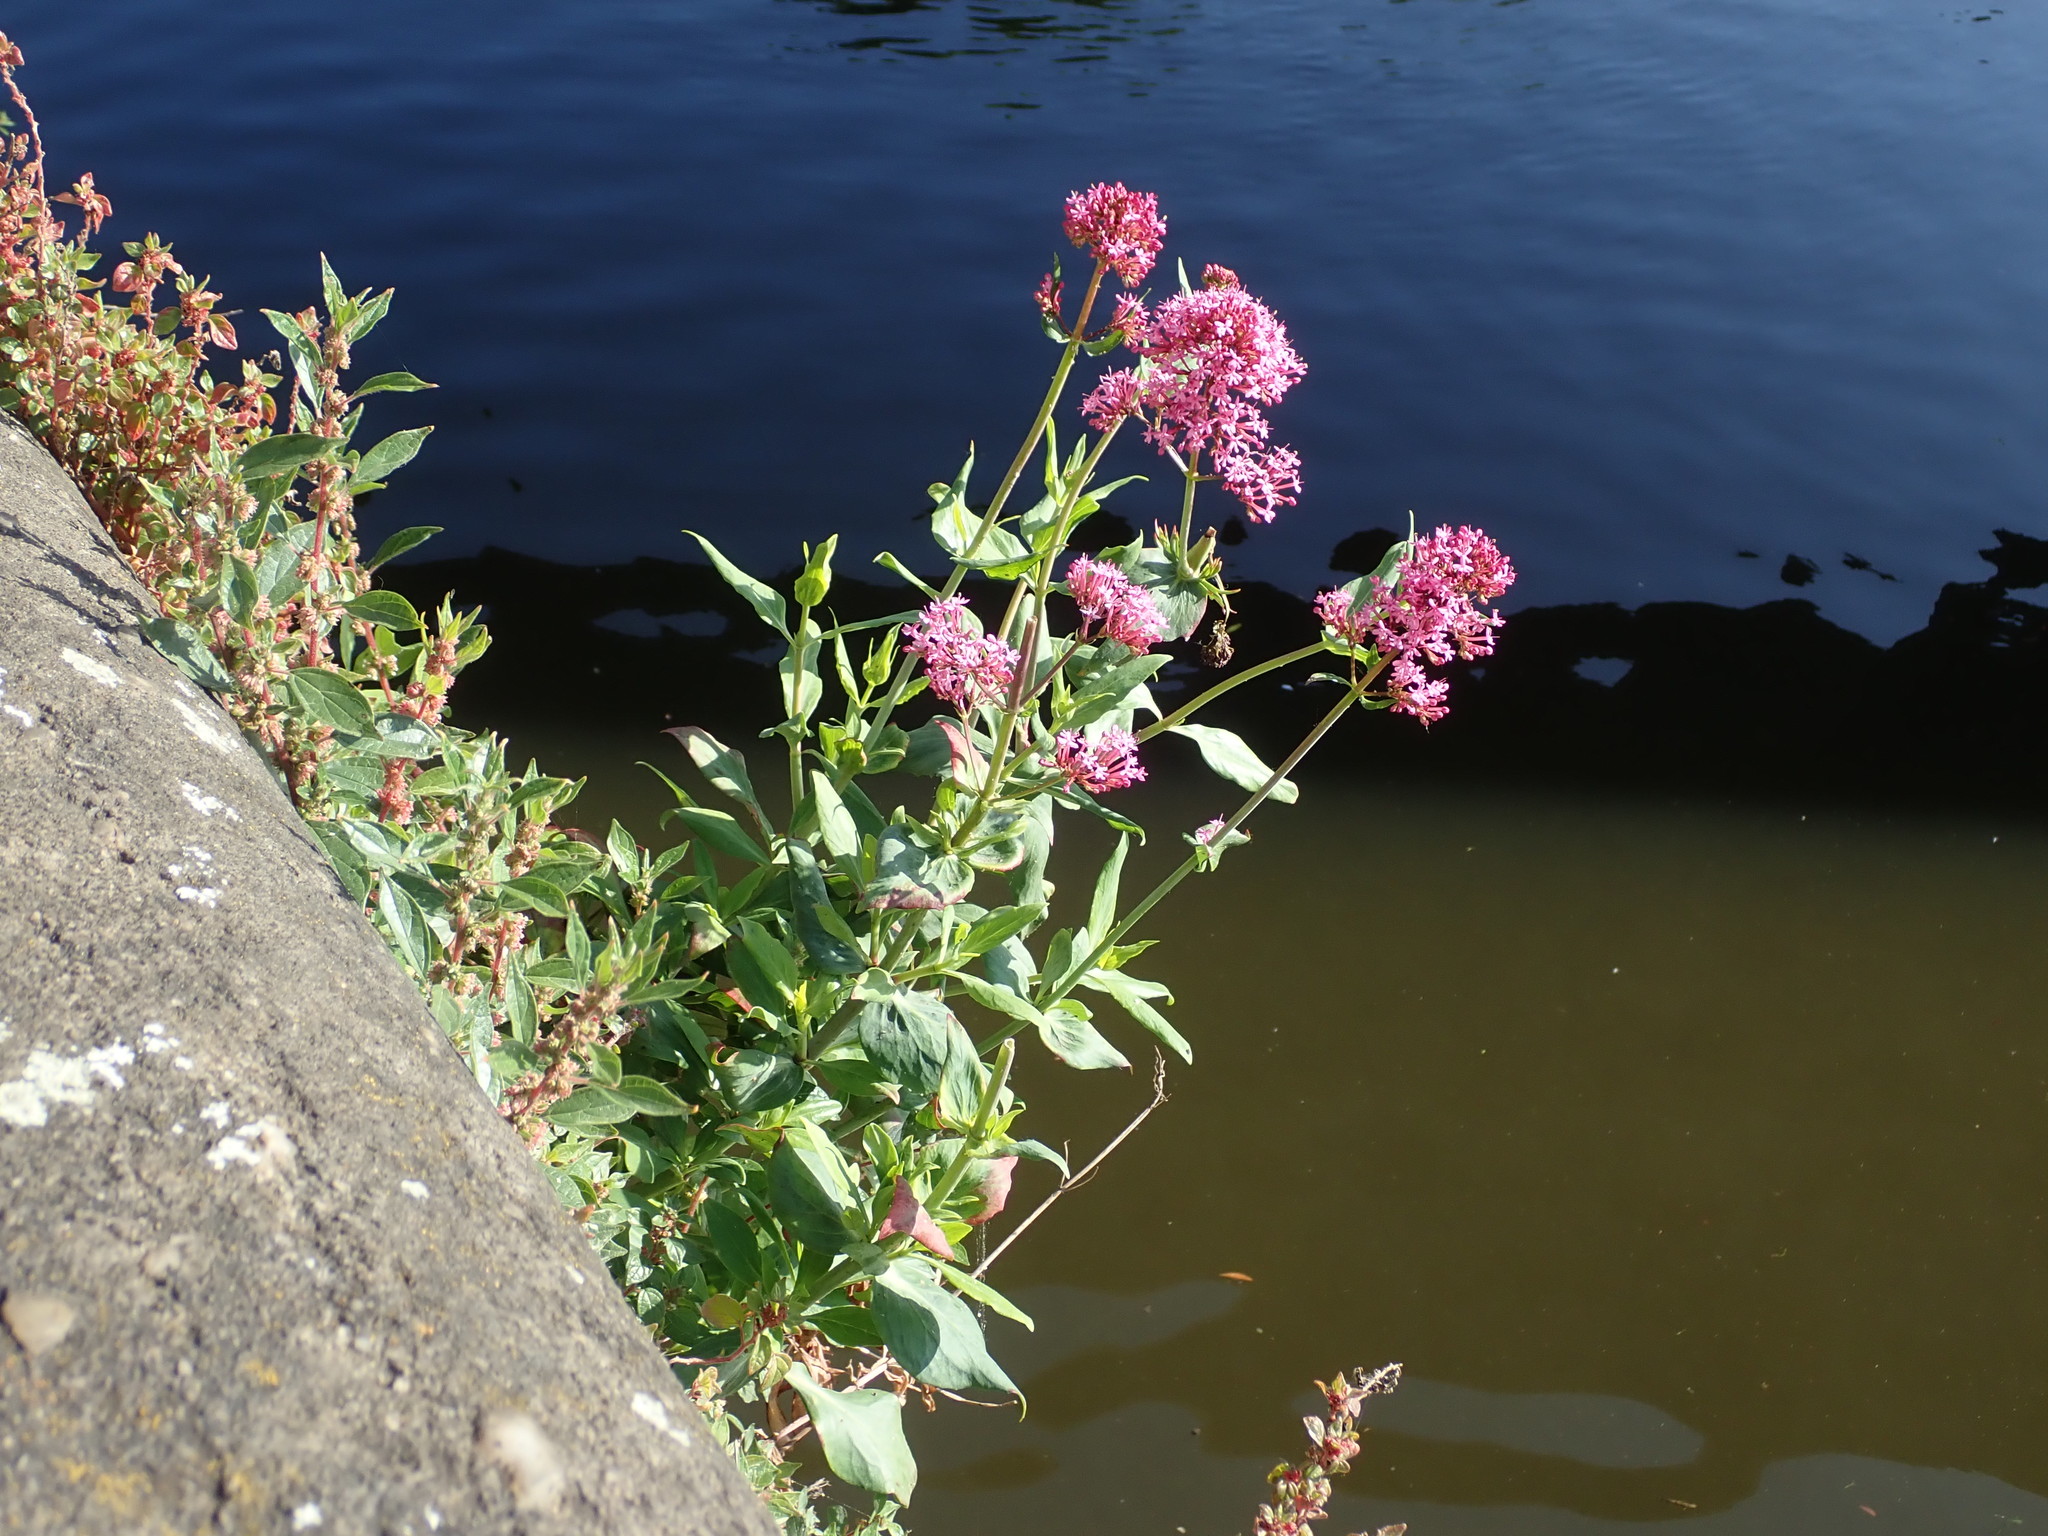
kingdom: Plantae
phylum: Tracheophyta
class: Magnoliopsida
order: Dipsacales
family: Caprifoliaceae
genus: Centranthus
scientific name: Centranthus ruber
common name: Red valerian
